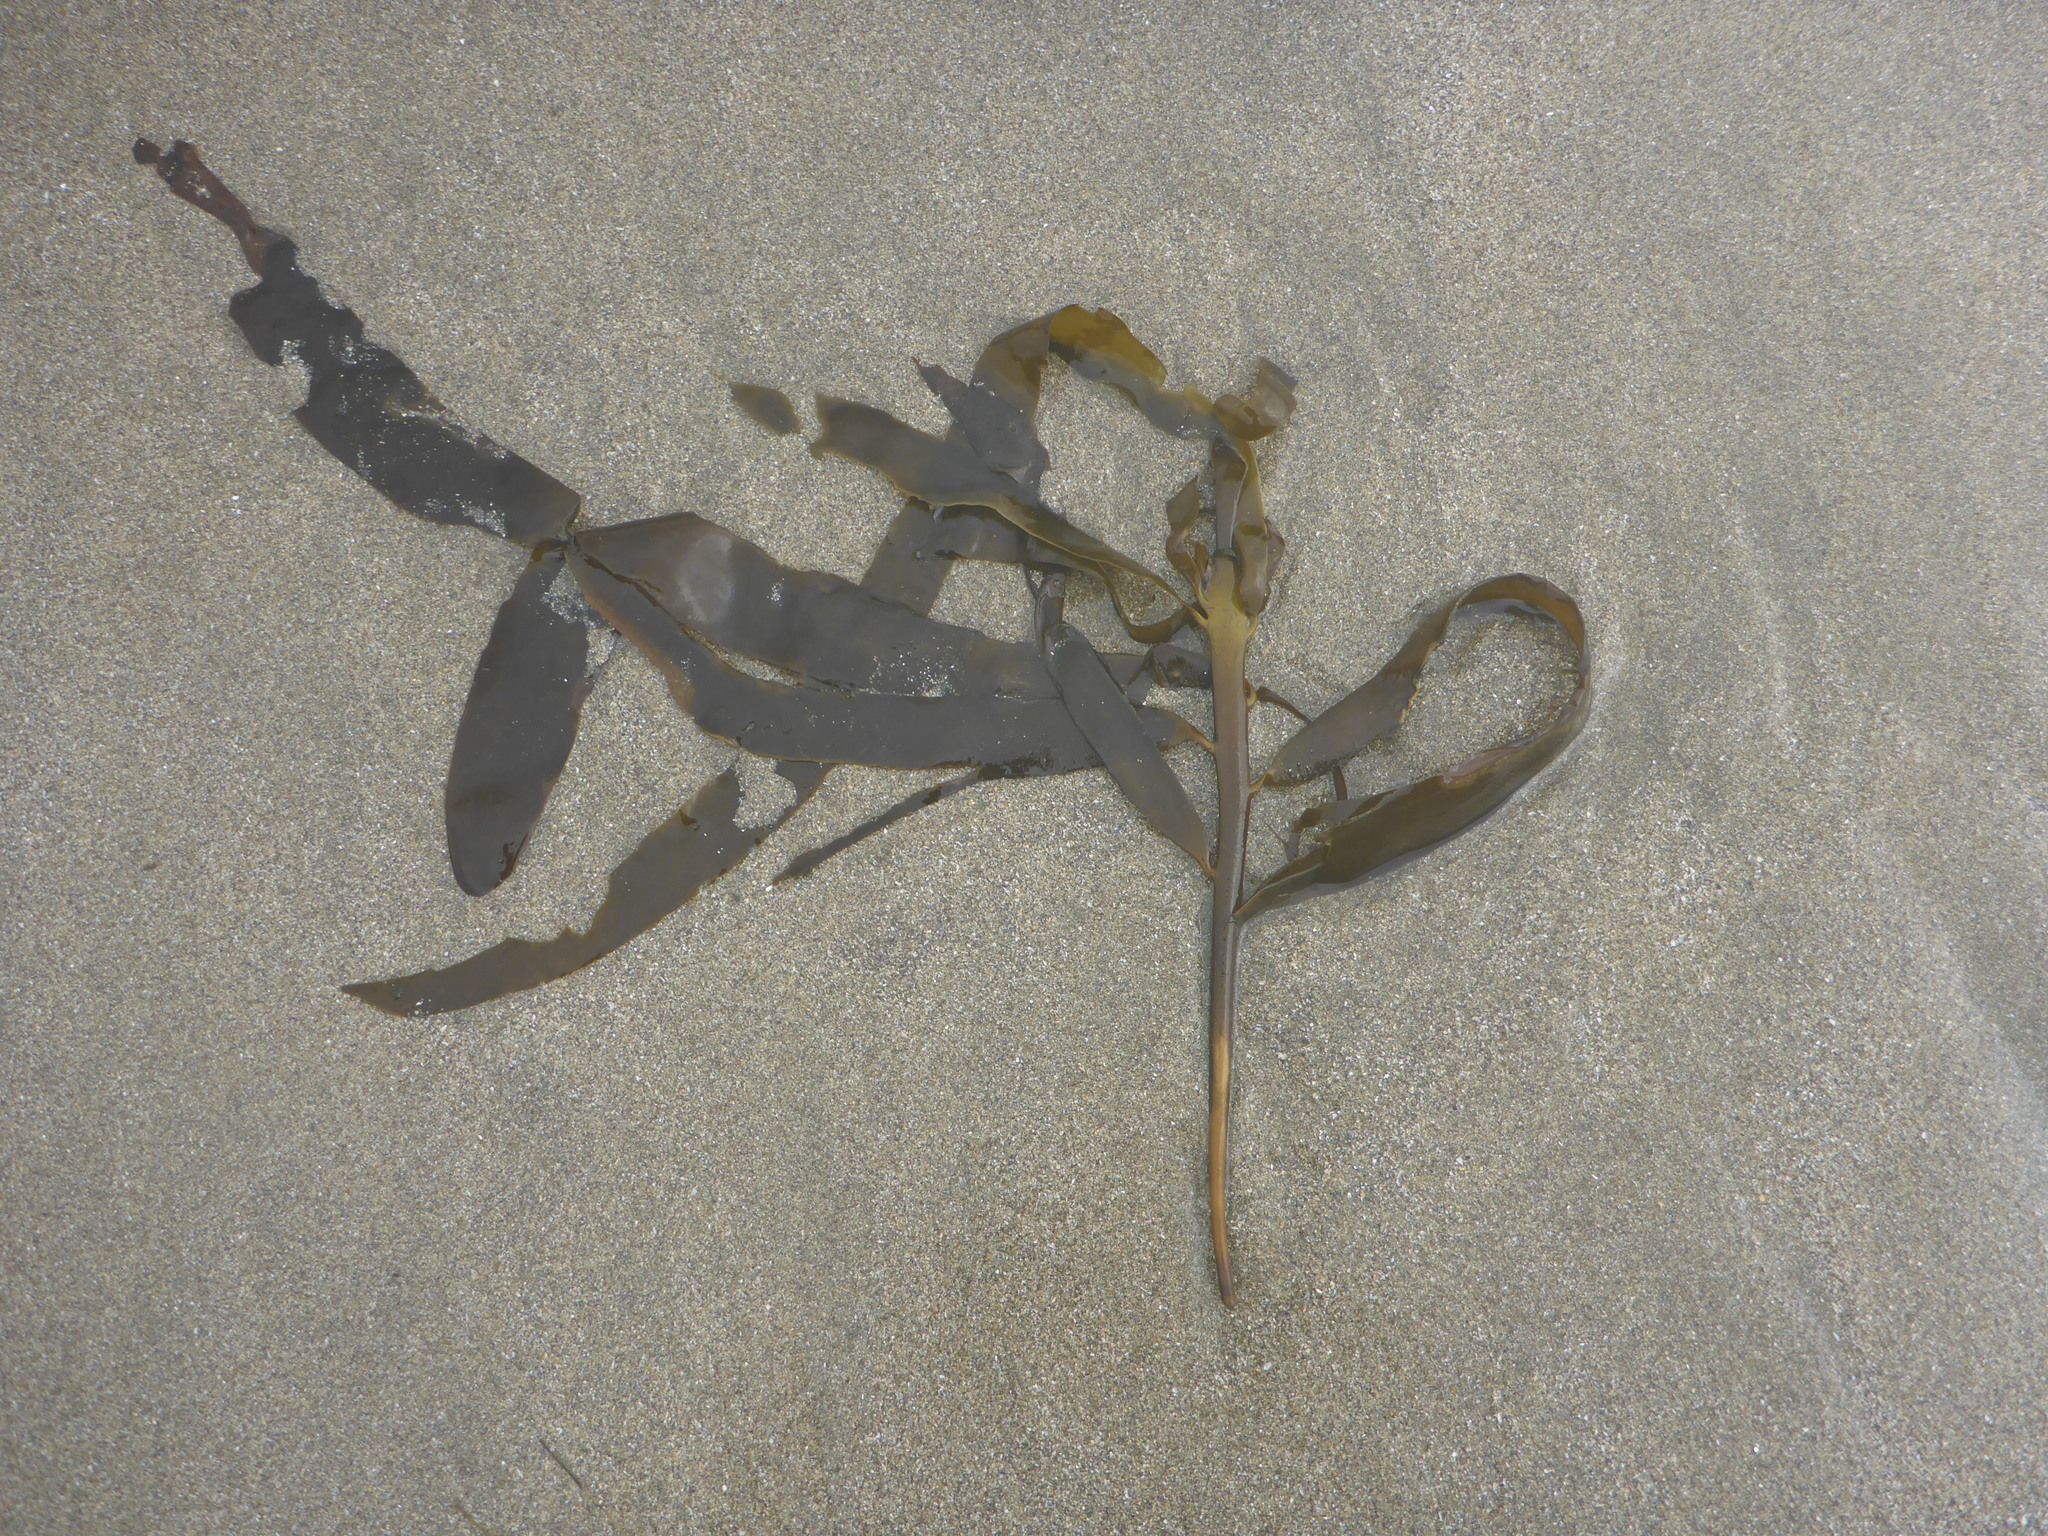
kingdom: Chromista
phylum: Ochrophyta
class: Phaeophyceae
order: Laminariales
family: Alariaceae
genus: Pterygophora
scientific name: Pterygophora californica
